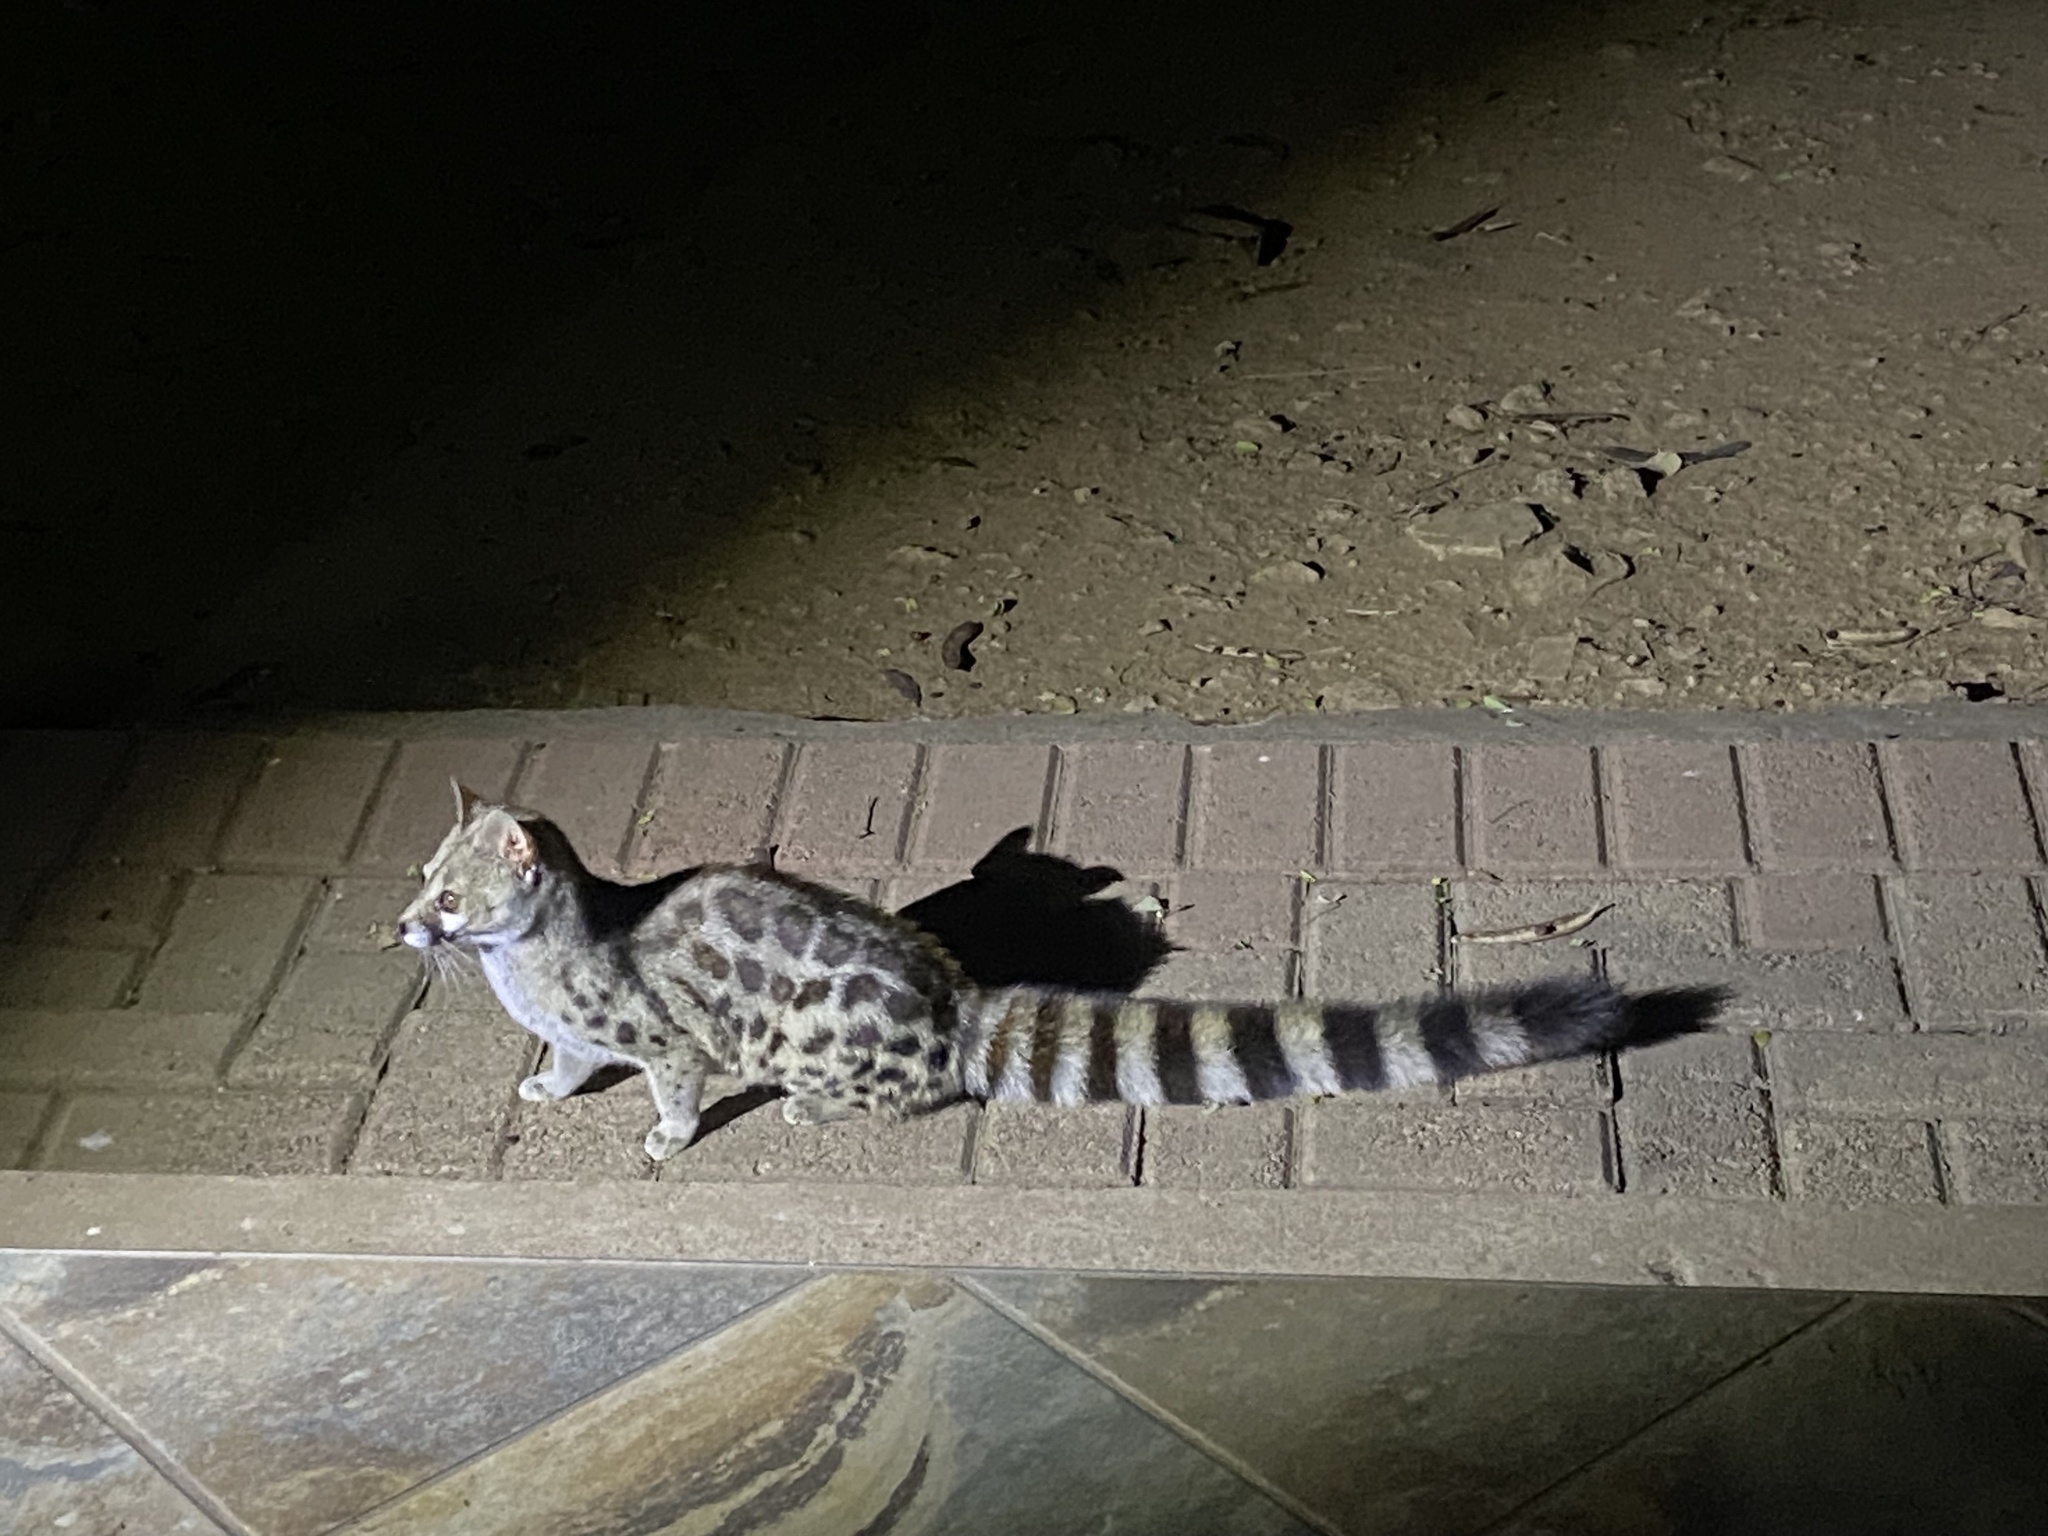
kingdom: Animalia
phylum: Chordata
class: Mammalia
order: Carnivora
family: Viverridae
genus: Genetta
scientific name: Genetta maculata
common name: Rusty-spotted genet
